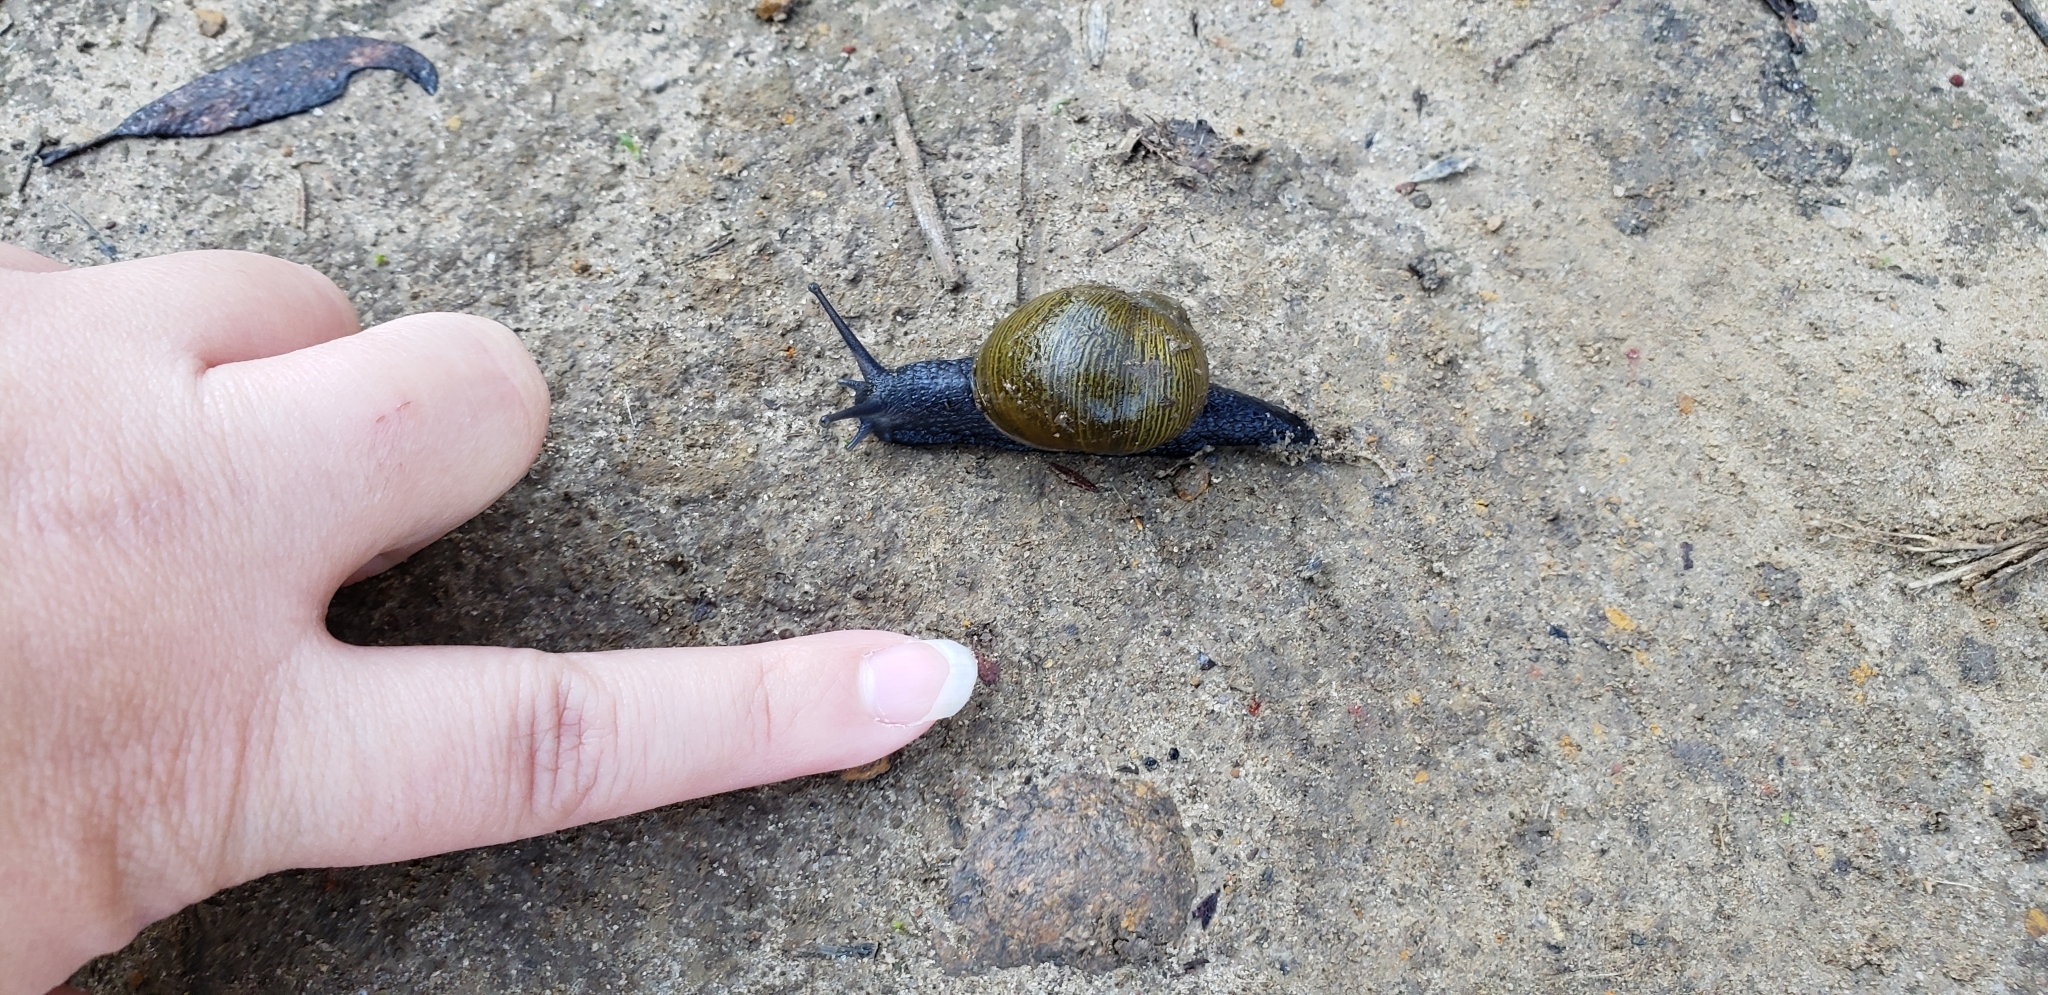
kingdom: Animalia
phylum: Mollusca
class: Gastropoda
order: Stylommatophora
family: Helicidae
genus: Cantareus
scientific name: Cantareus apertus
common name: Green gardensnail
